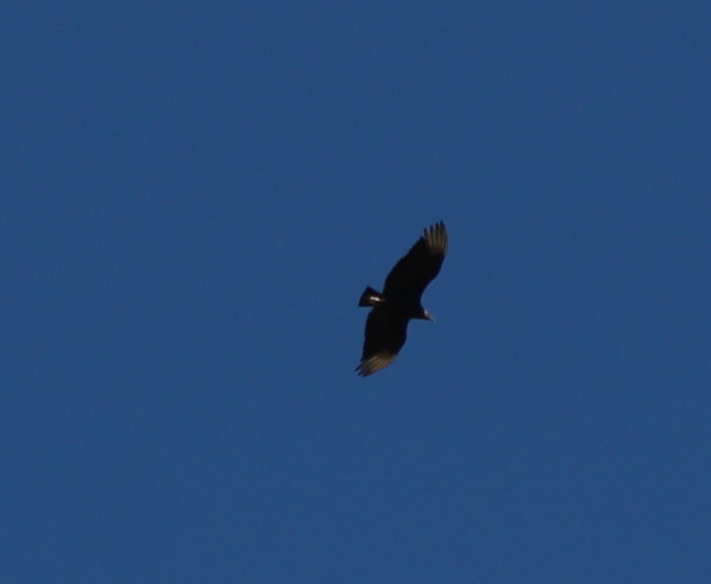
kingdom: Animalia
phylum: Chordata
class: Aves
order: Accipitriformes
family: Cathartidae
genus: Coragyps
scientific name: Coragyps atratus
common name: Black vulture
